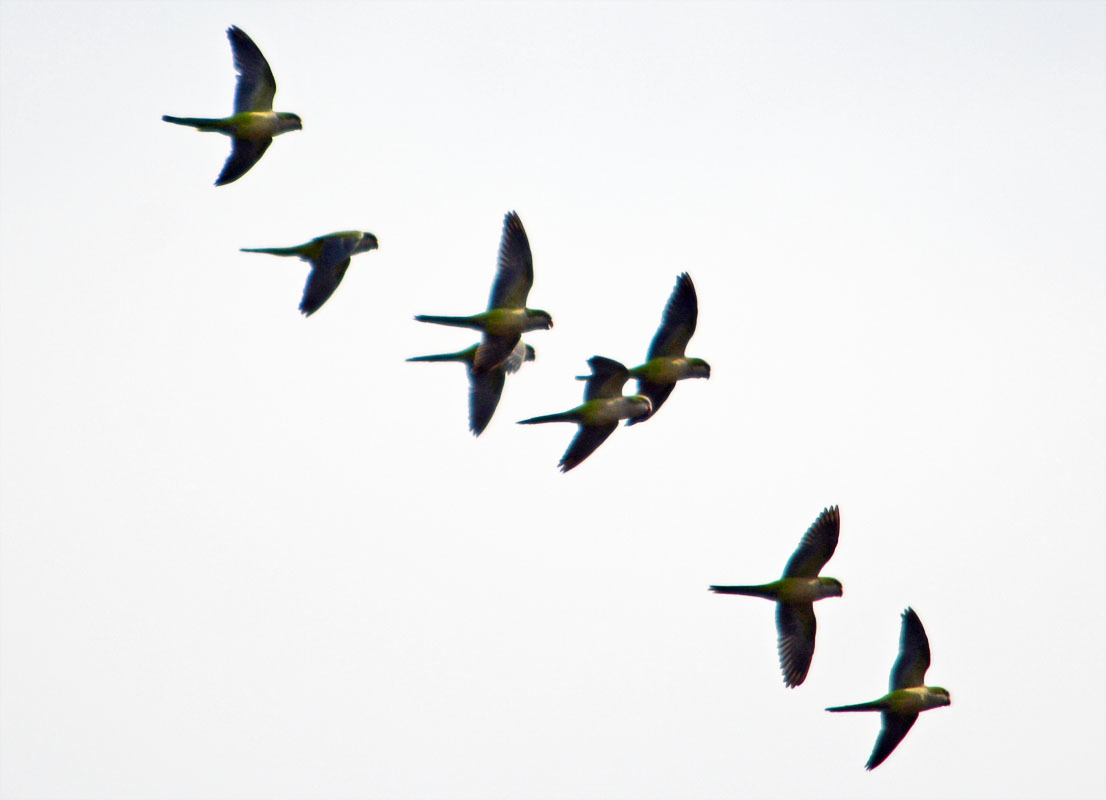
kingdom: Animalia
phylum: Chordata
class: Aves
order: Psittaciformes
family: Psittacidae
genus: Myiopsitta
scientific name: Myiopsitta monachus
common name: Monk parakeet
